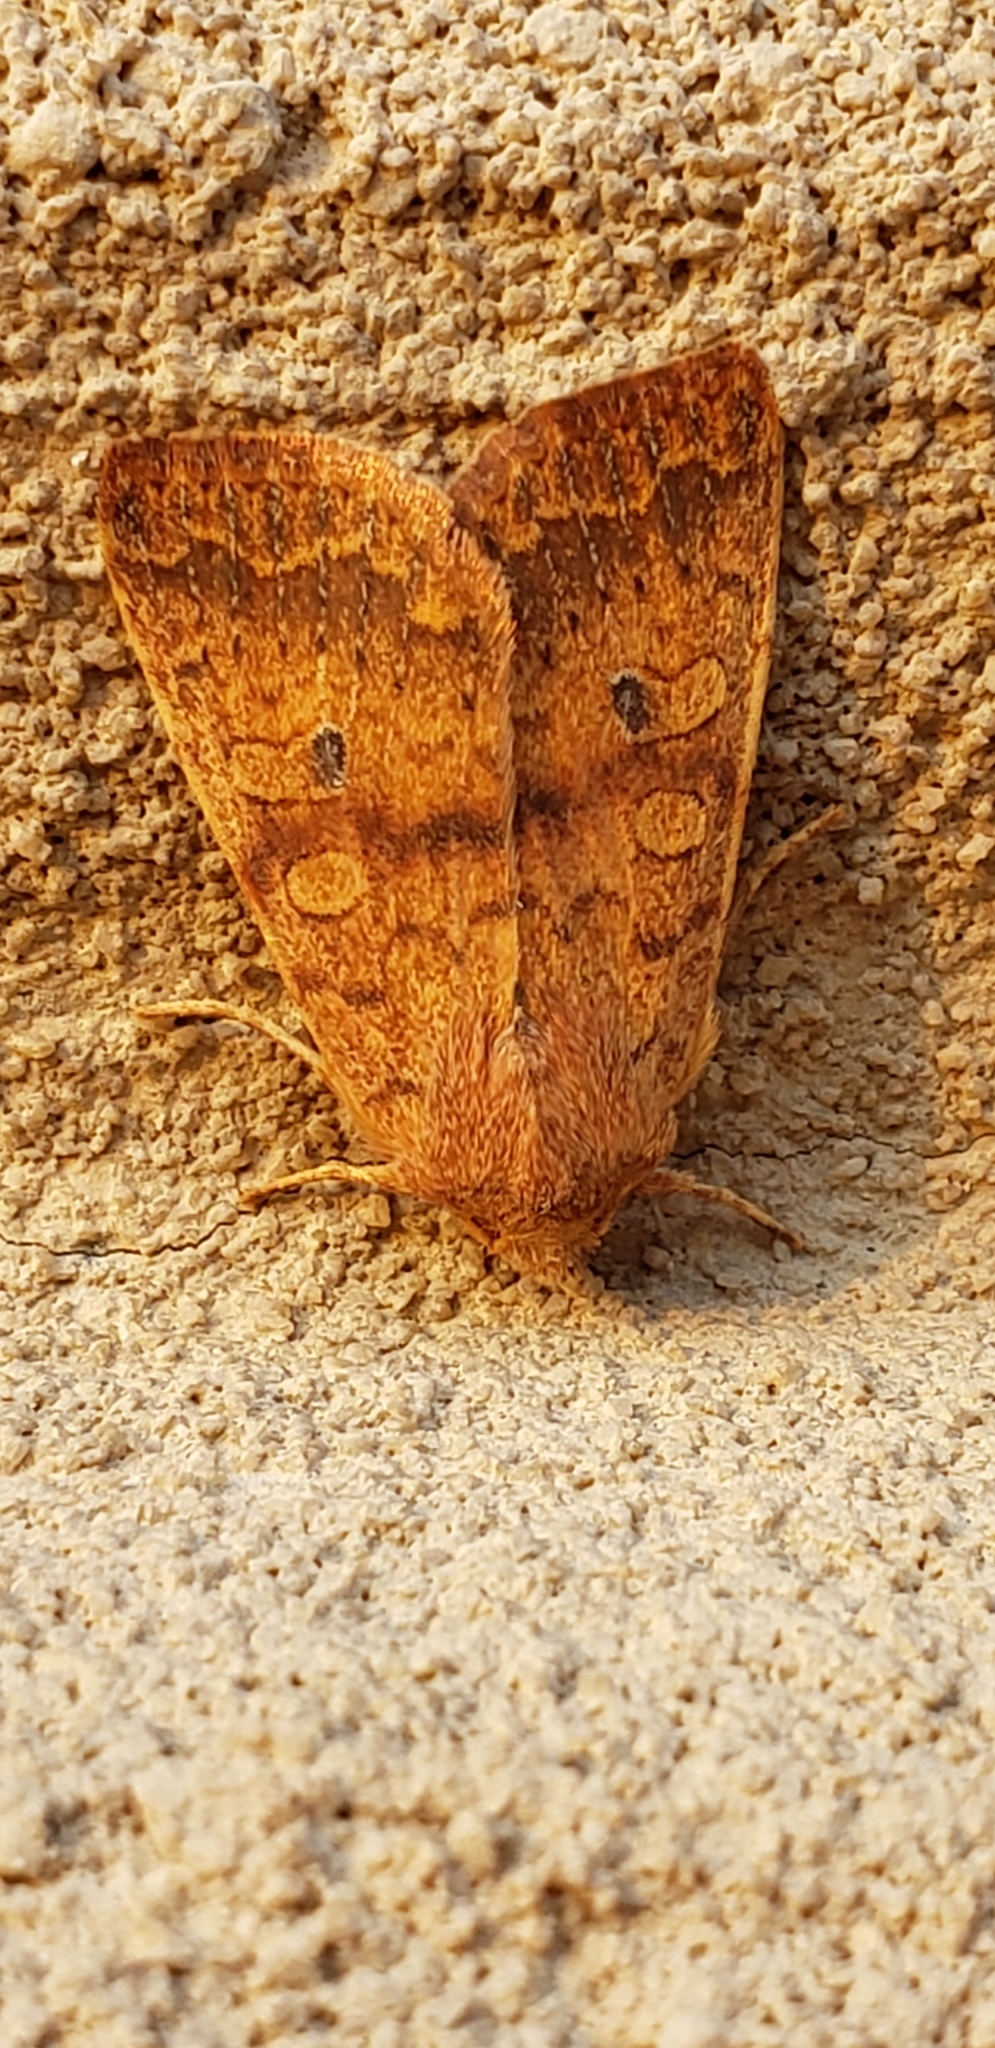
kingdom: Animalia
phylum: Arthropoda
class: Insecta
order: Lepidoptera
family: Noctuidae
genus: Agrochola
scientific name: Agrochola bicolorago
